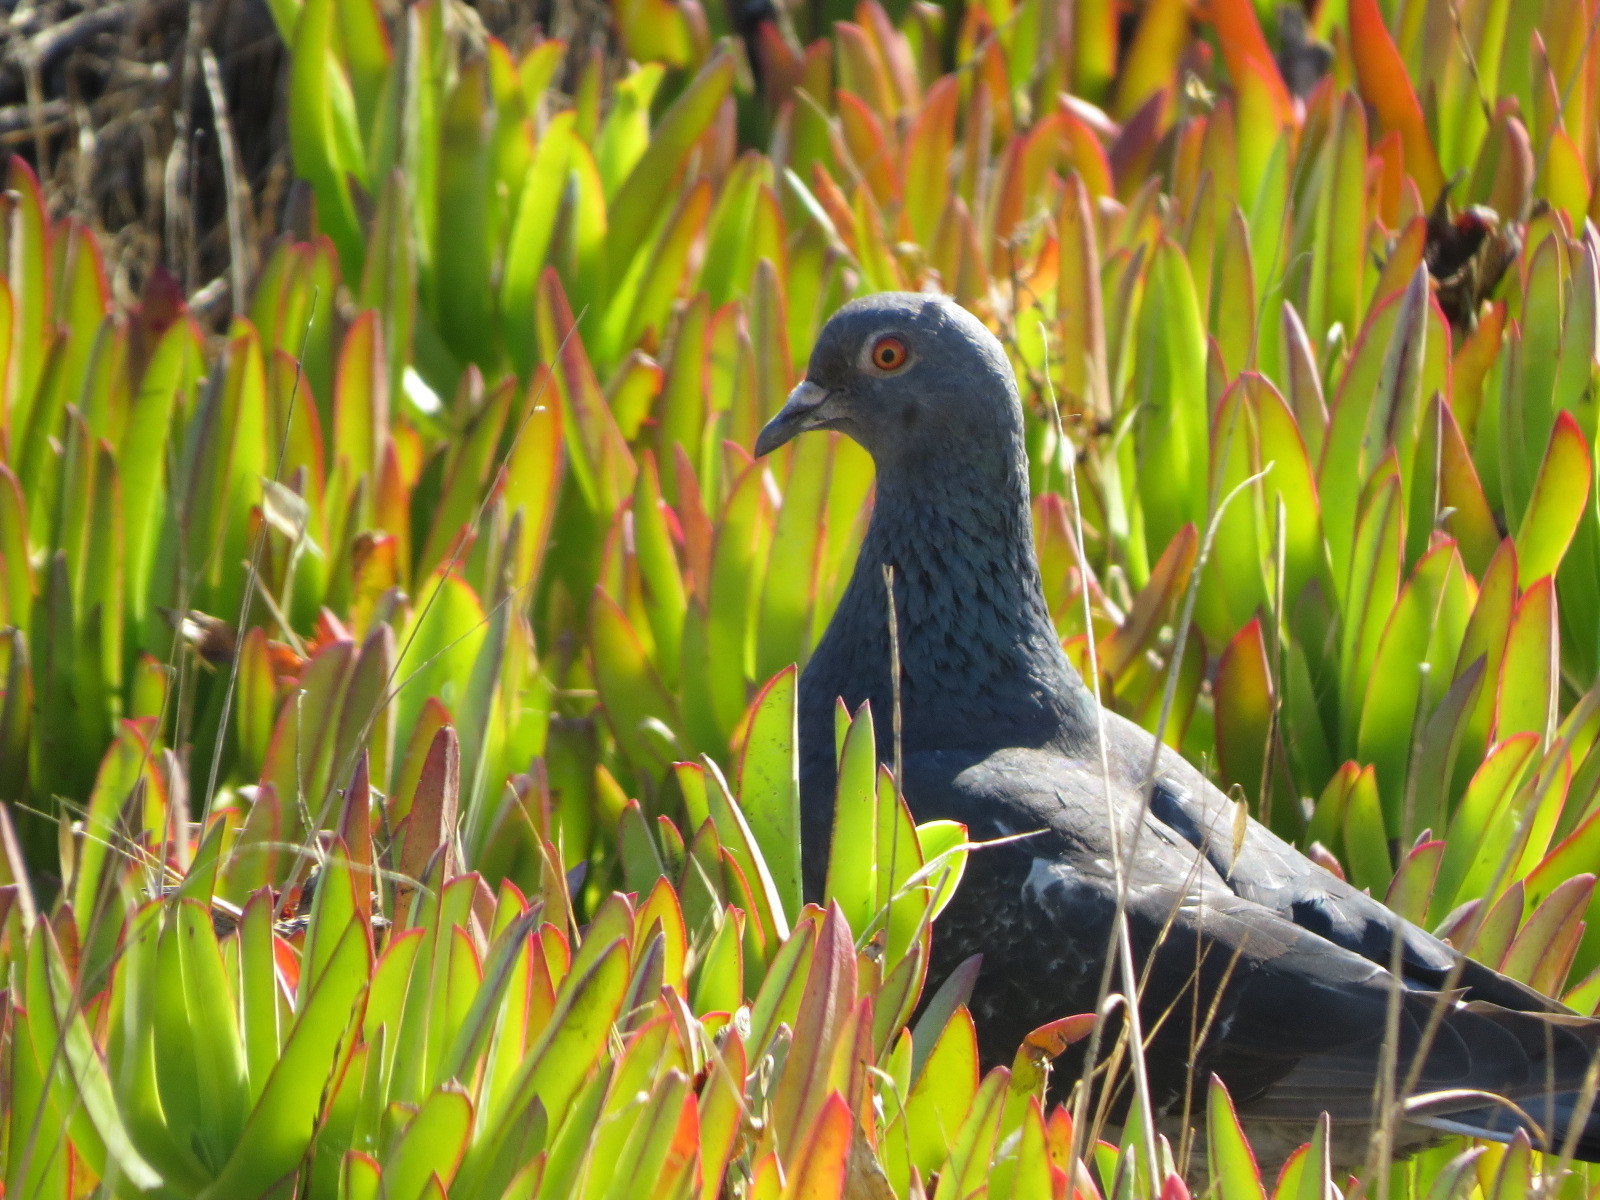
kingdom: Animalia
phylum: Chordata
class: Aves
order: Columbiformes
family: Columbidae
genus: Columba
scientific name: Columba livia
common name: Rock pigeon
